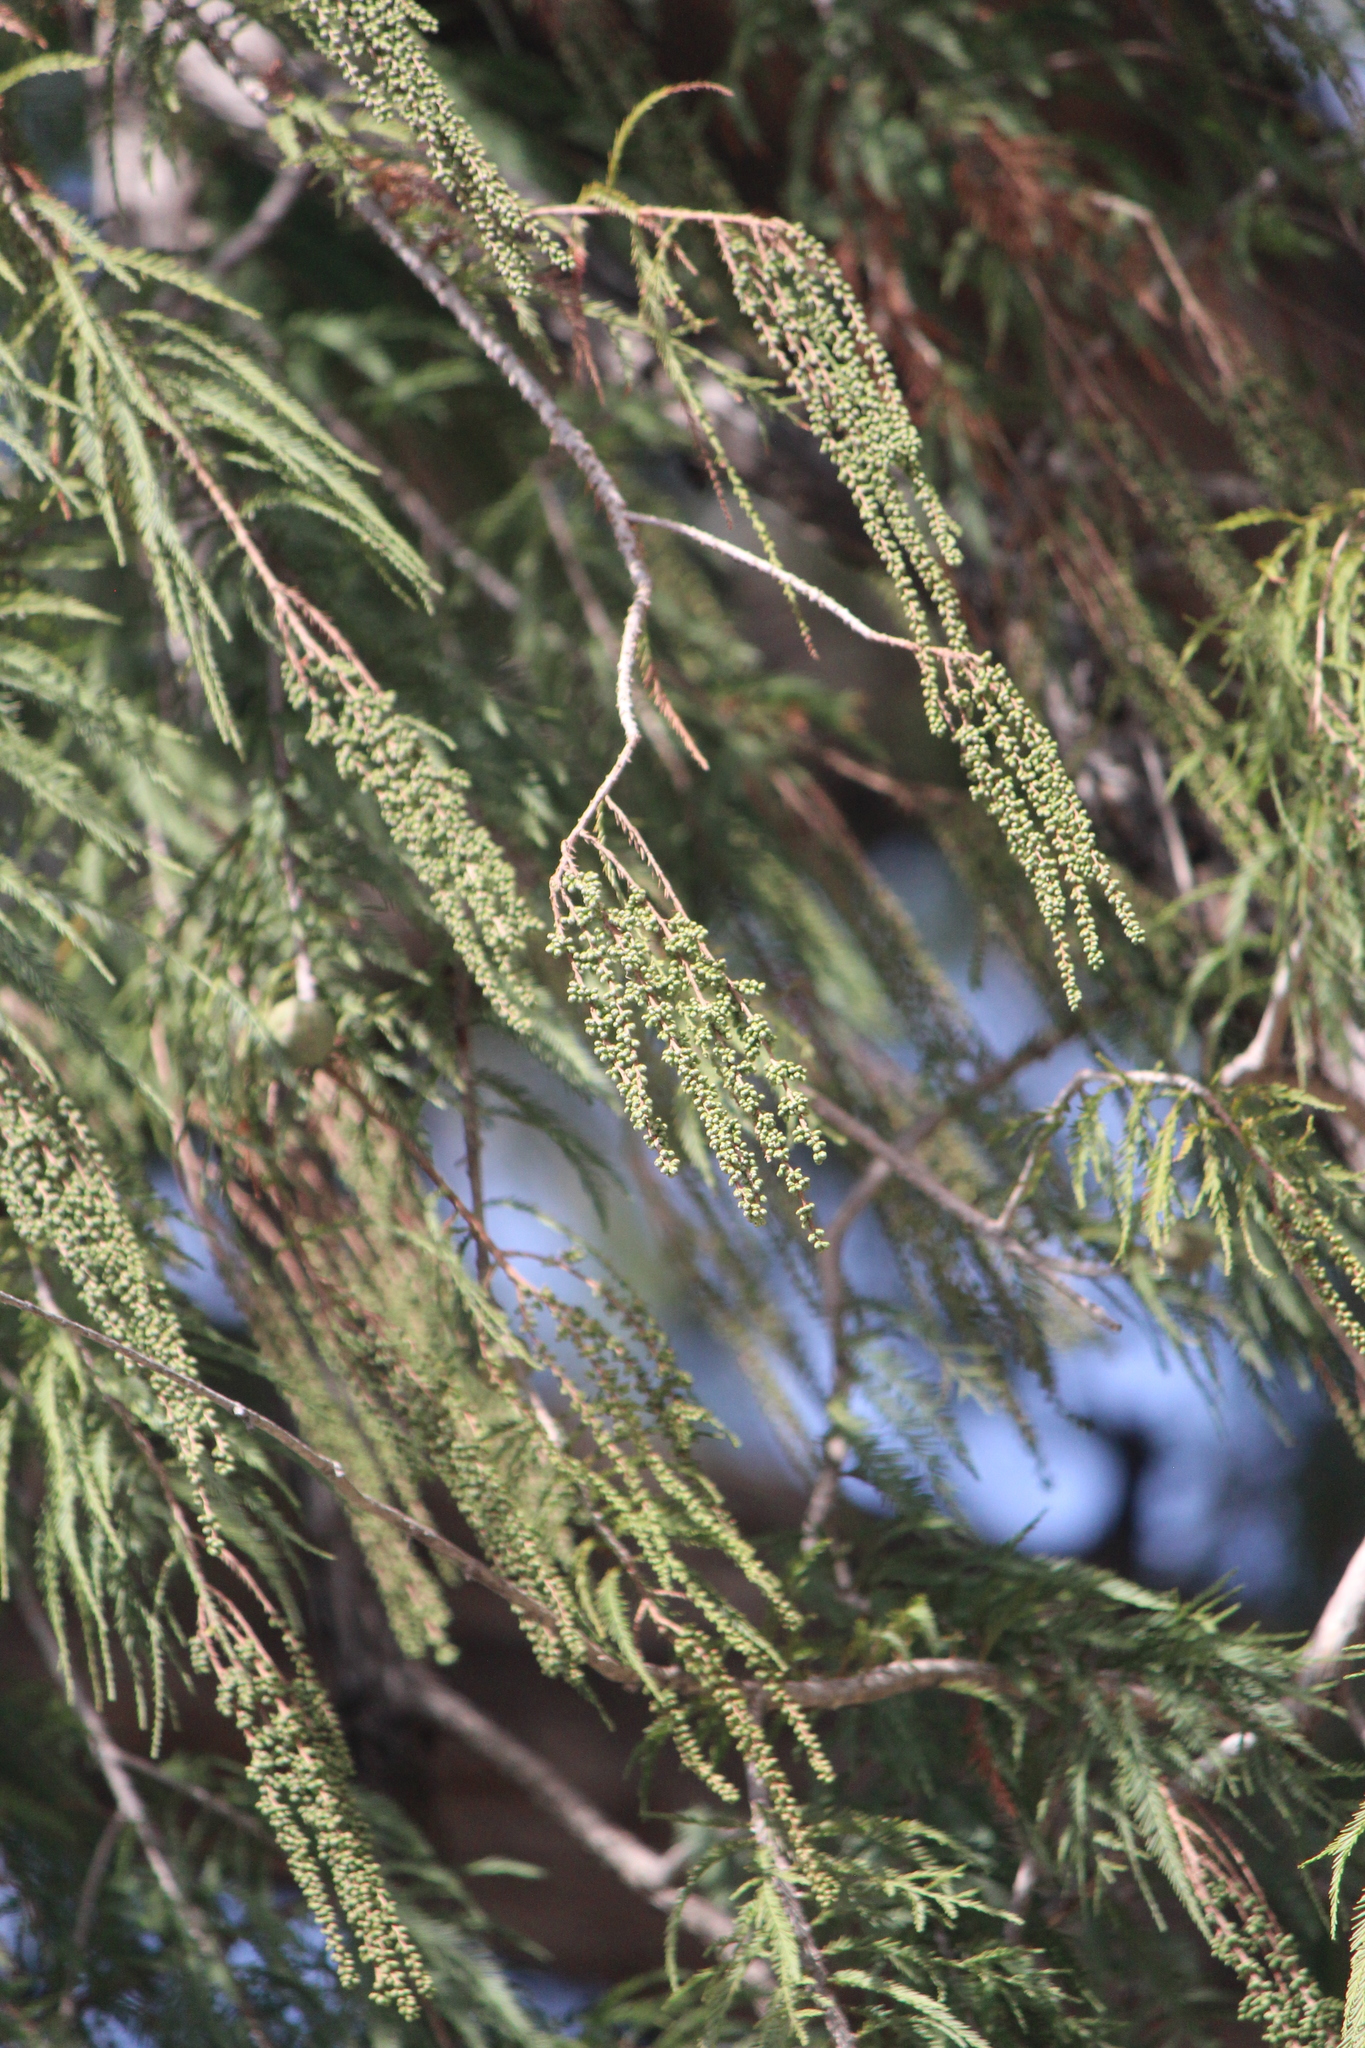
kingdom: Plantae
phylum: Tracheophyta
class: Pinopsida
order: Pinales
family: Cupressaceae
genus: Taxodium
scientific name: Taxodium mucronatum
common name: Montezume bald cypress
